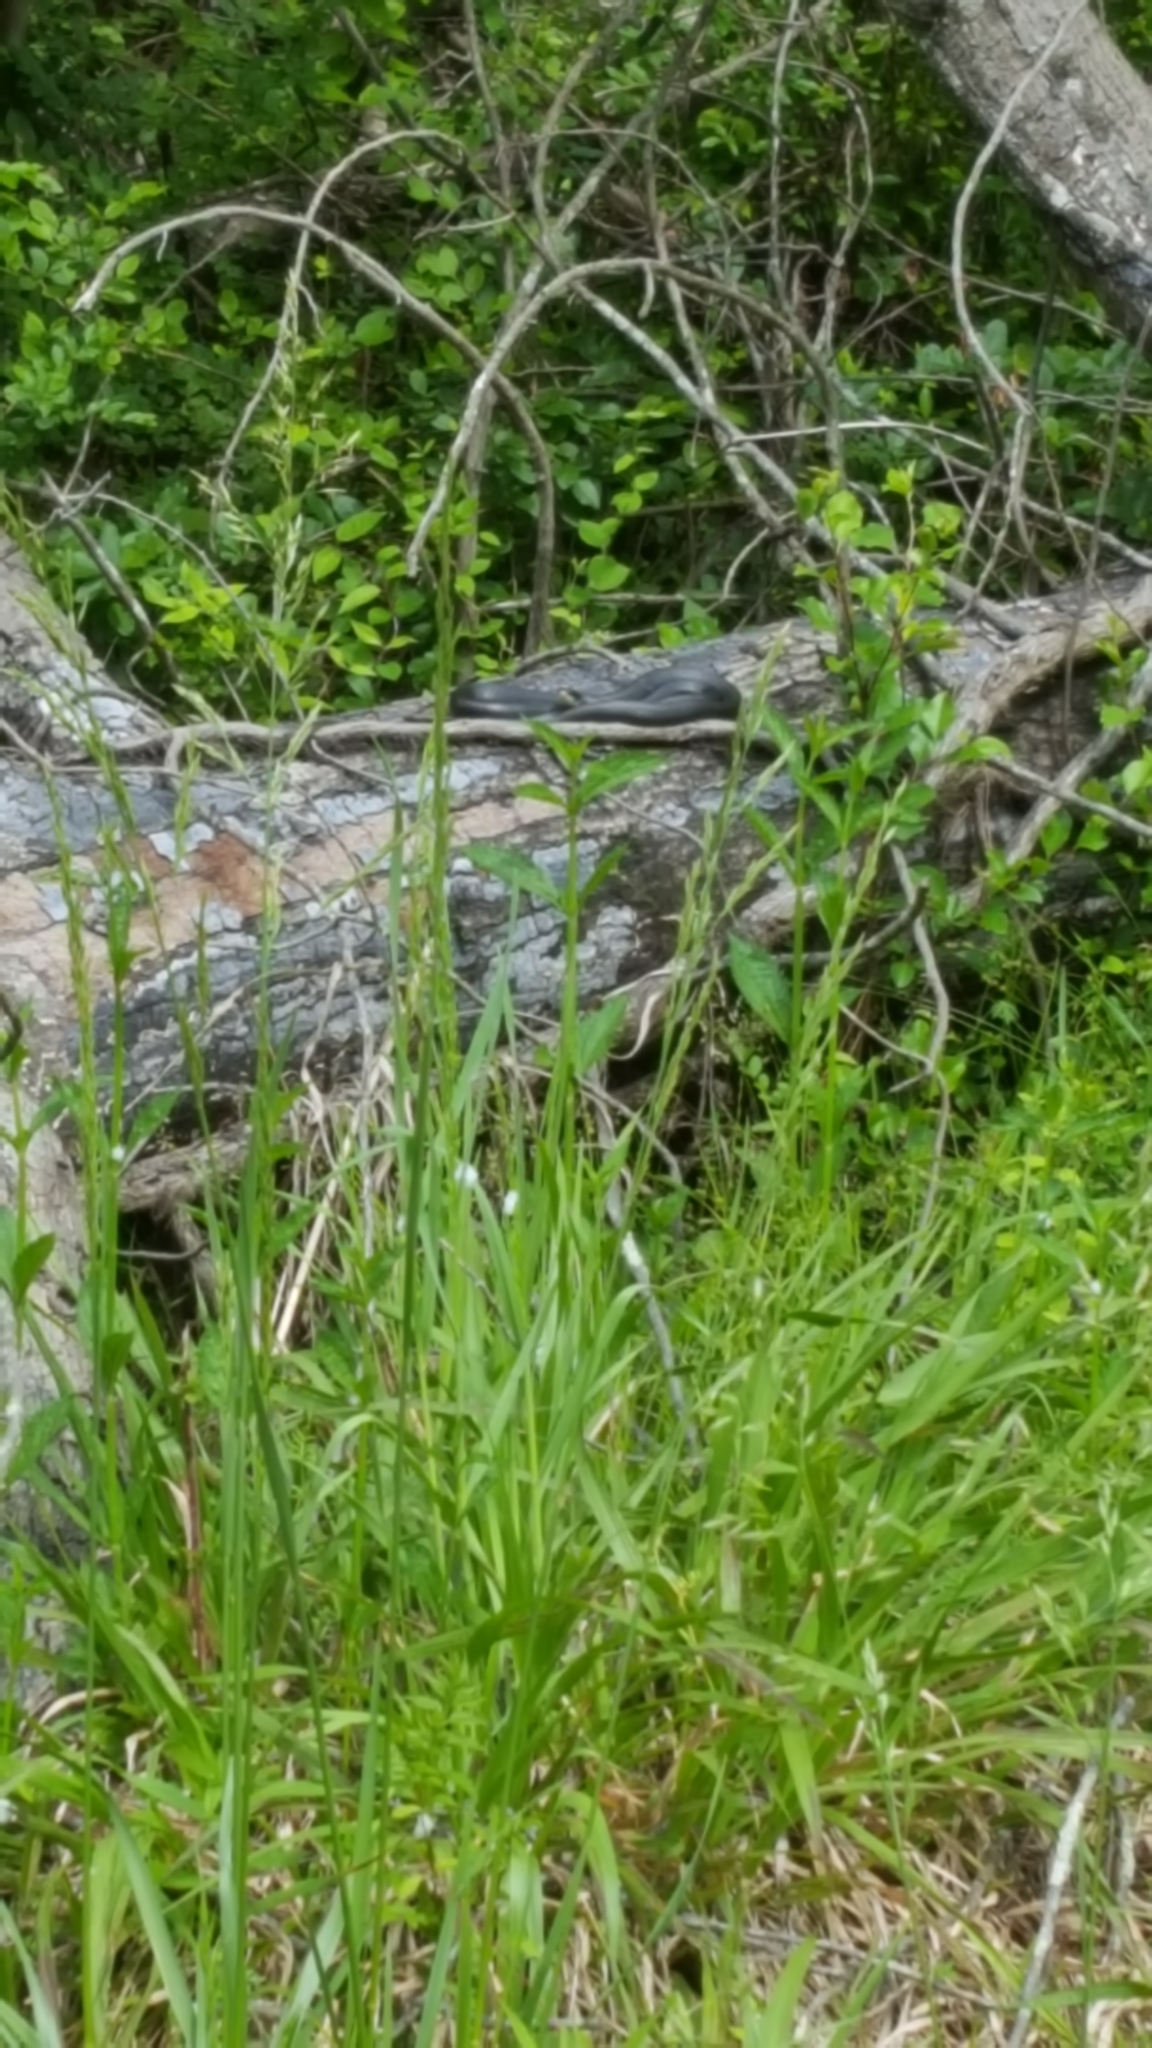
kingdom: Animalia
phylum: Chordata
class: Squamata
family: Colubridae
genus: Coluber
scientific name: Coluber constrictor
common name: Eastern racer
